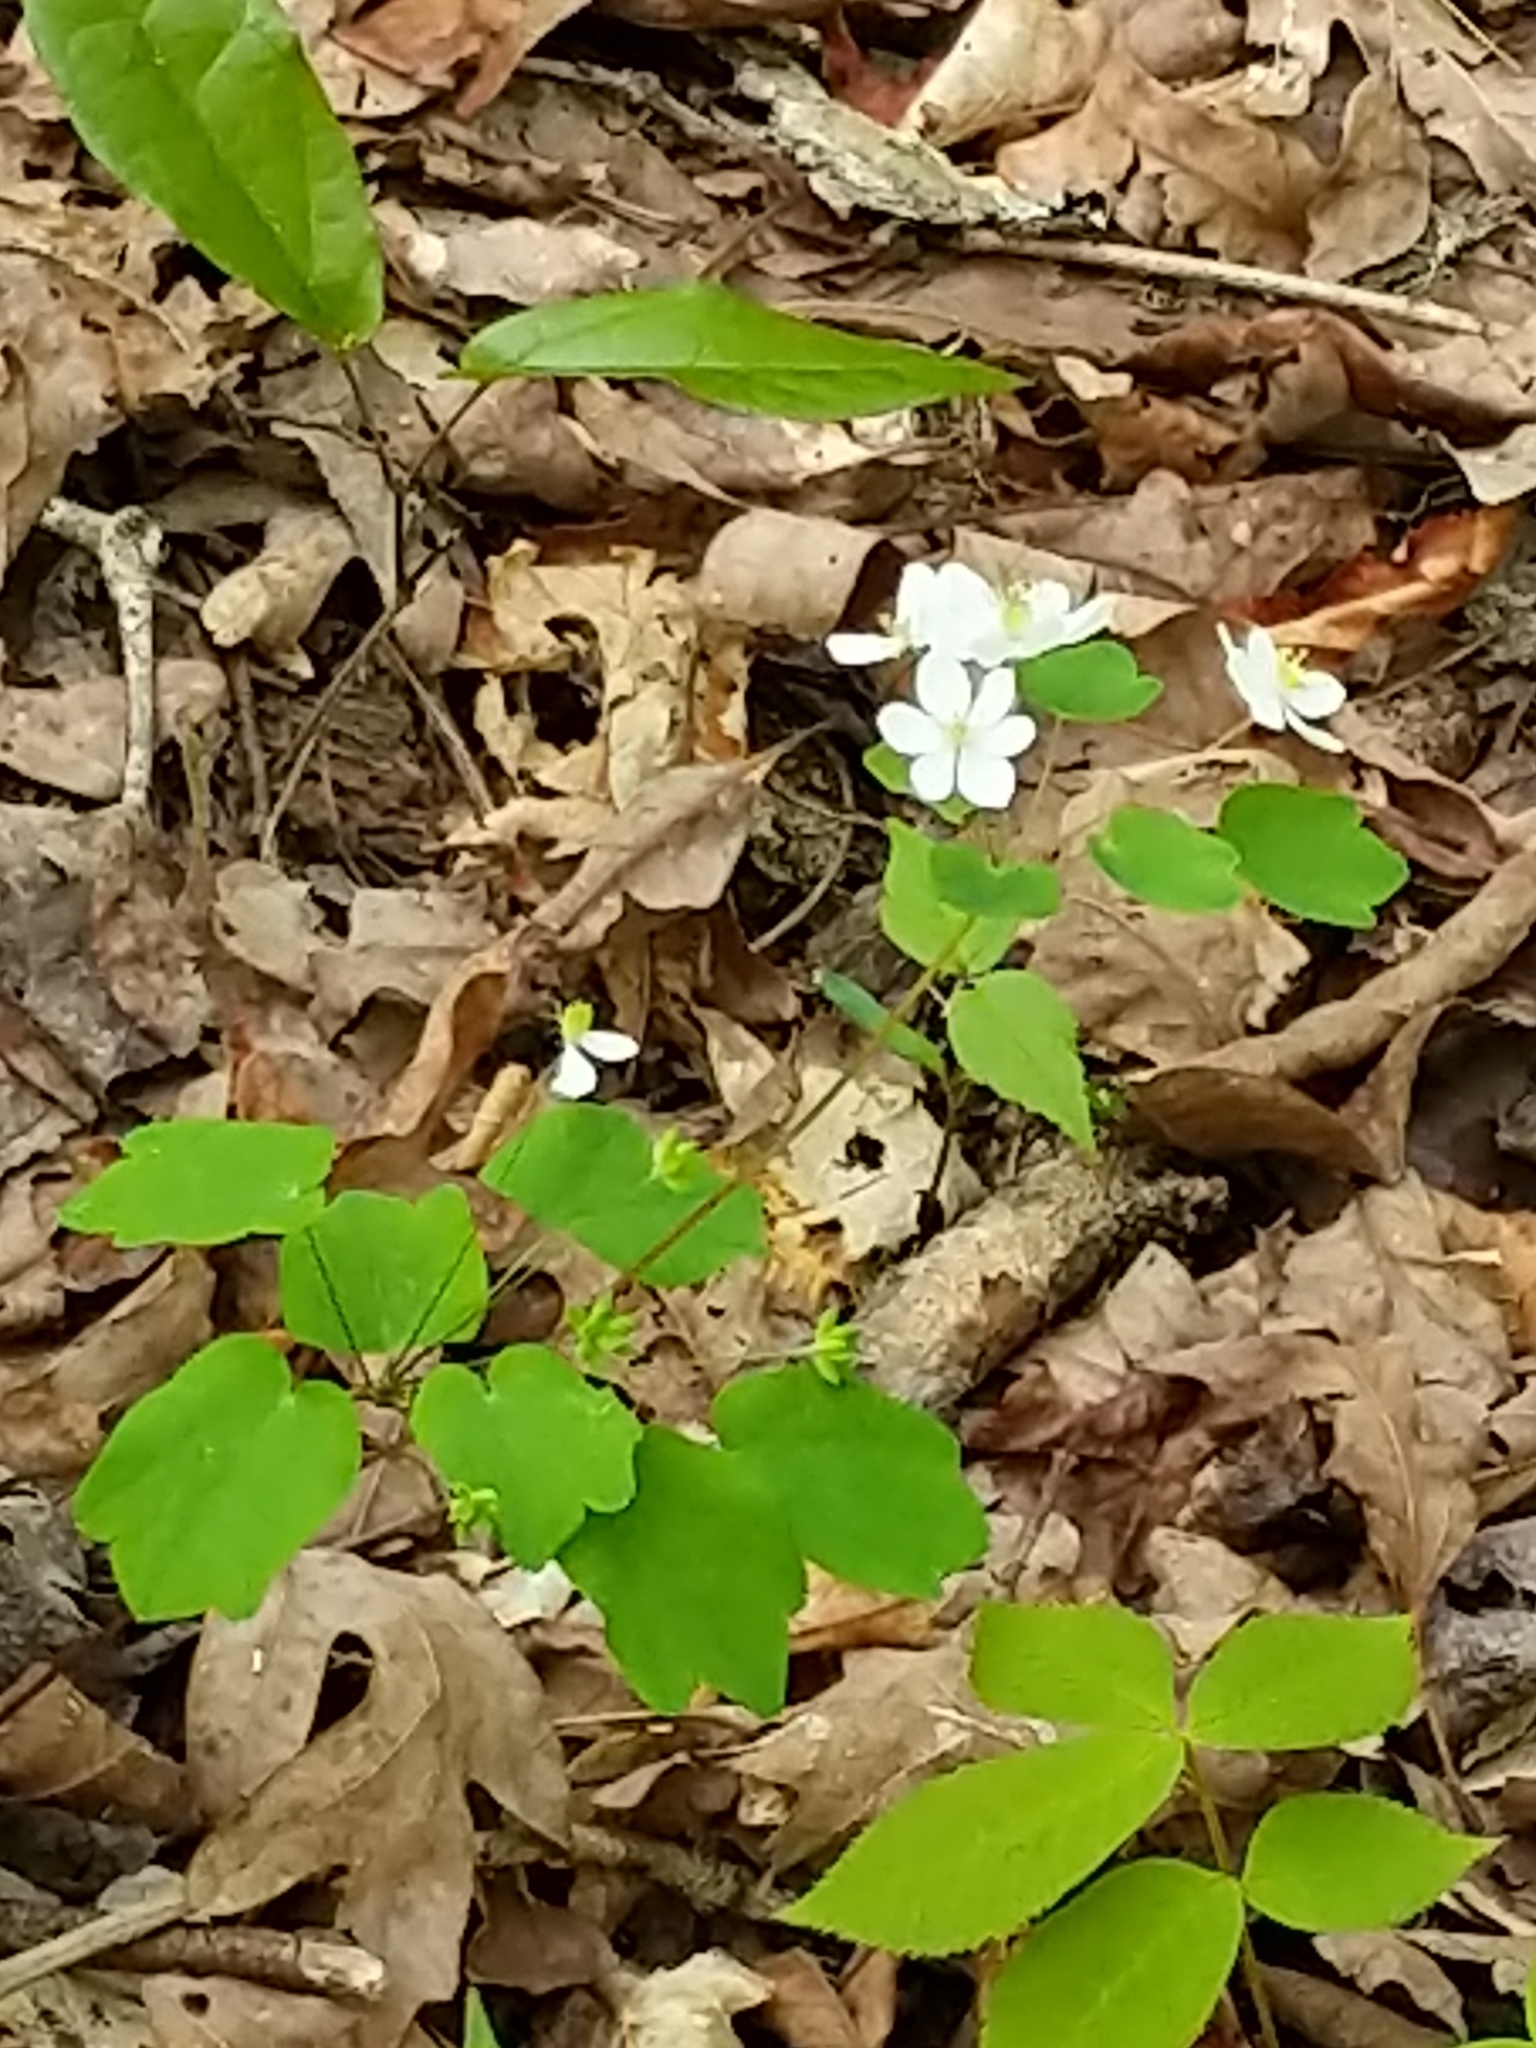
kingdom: Plantae
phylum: Tracheophyta
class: Magnoliopsida
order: Ranunculales
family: Ranunculaceae
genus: Thalictrum
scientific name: Thalictrum thalictroides
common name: Rue-anemone
